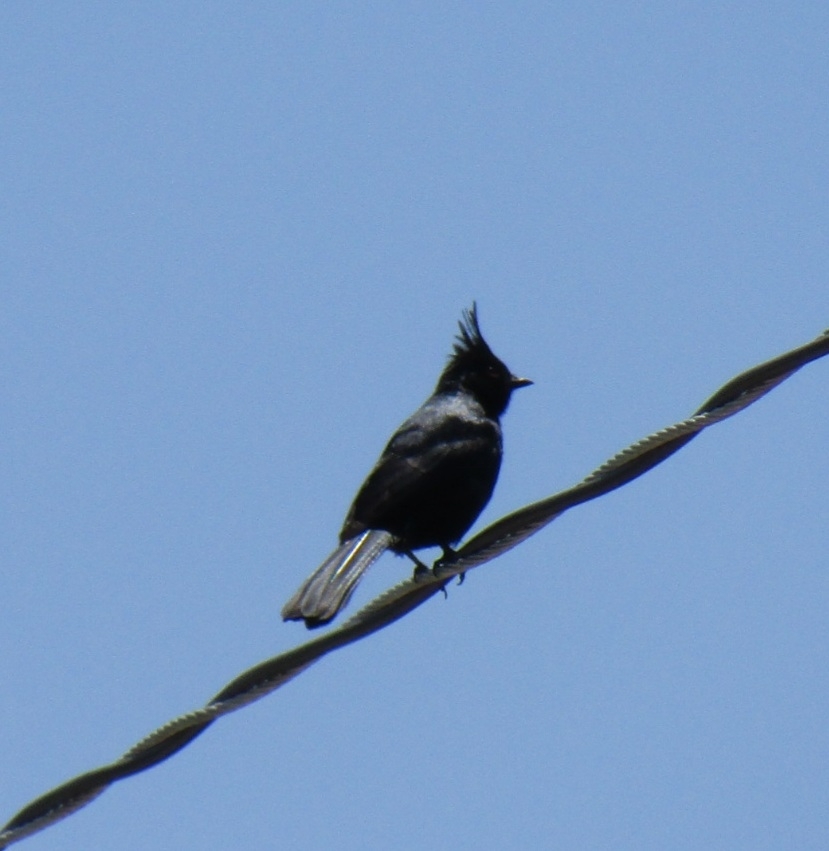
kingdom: Animalia
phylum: Chordata
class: Aves
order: Passeriformes
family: Ptilogonatidae
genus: Phainopepla
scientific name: Phainopepla nitens
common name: Phainopepla
